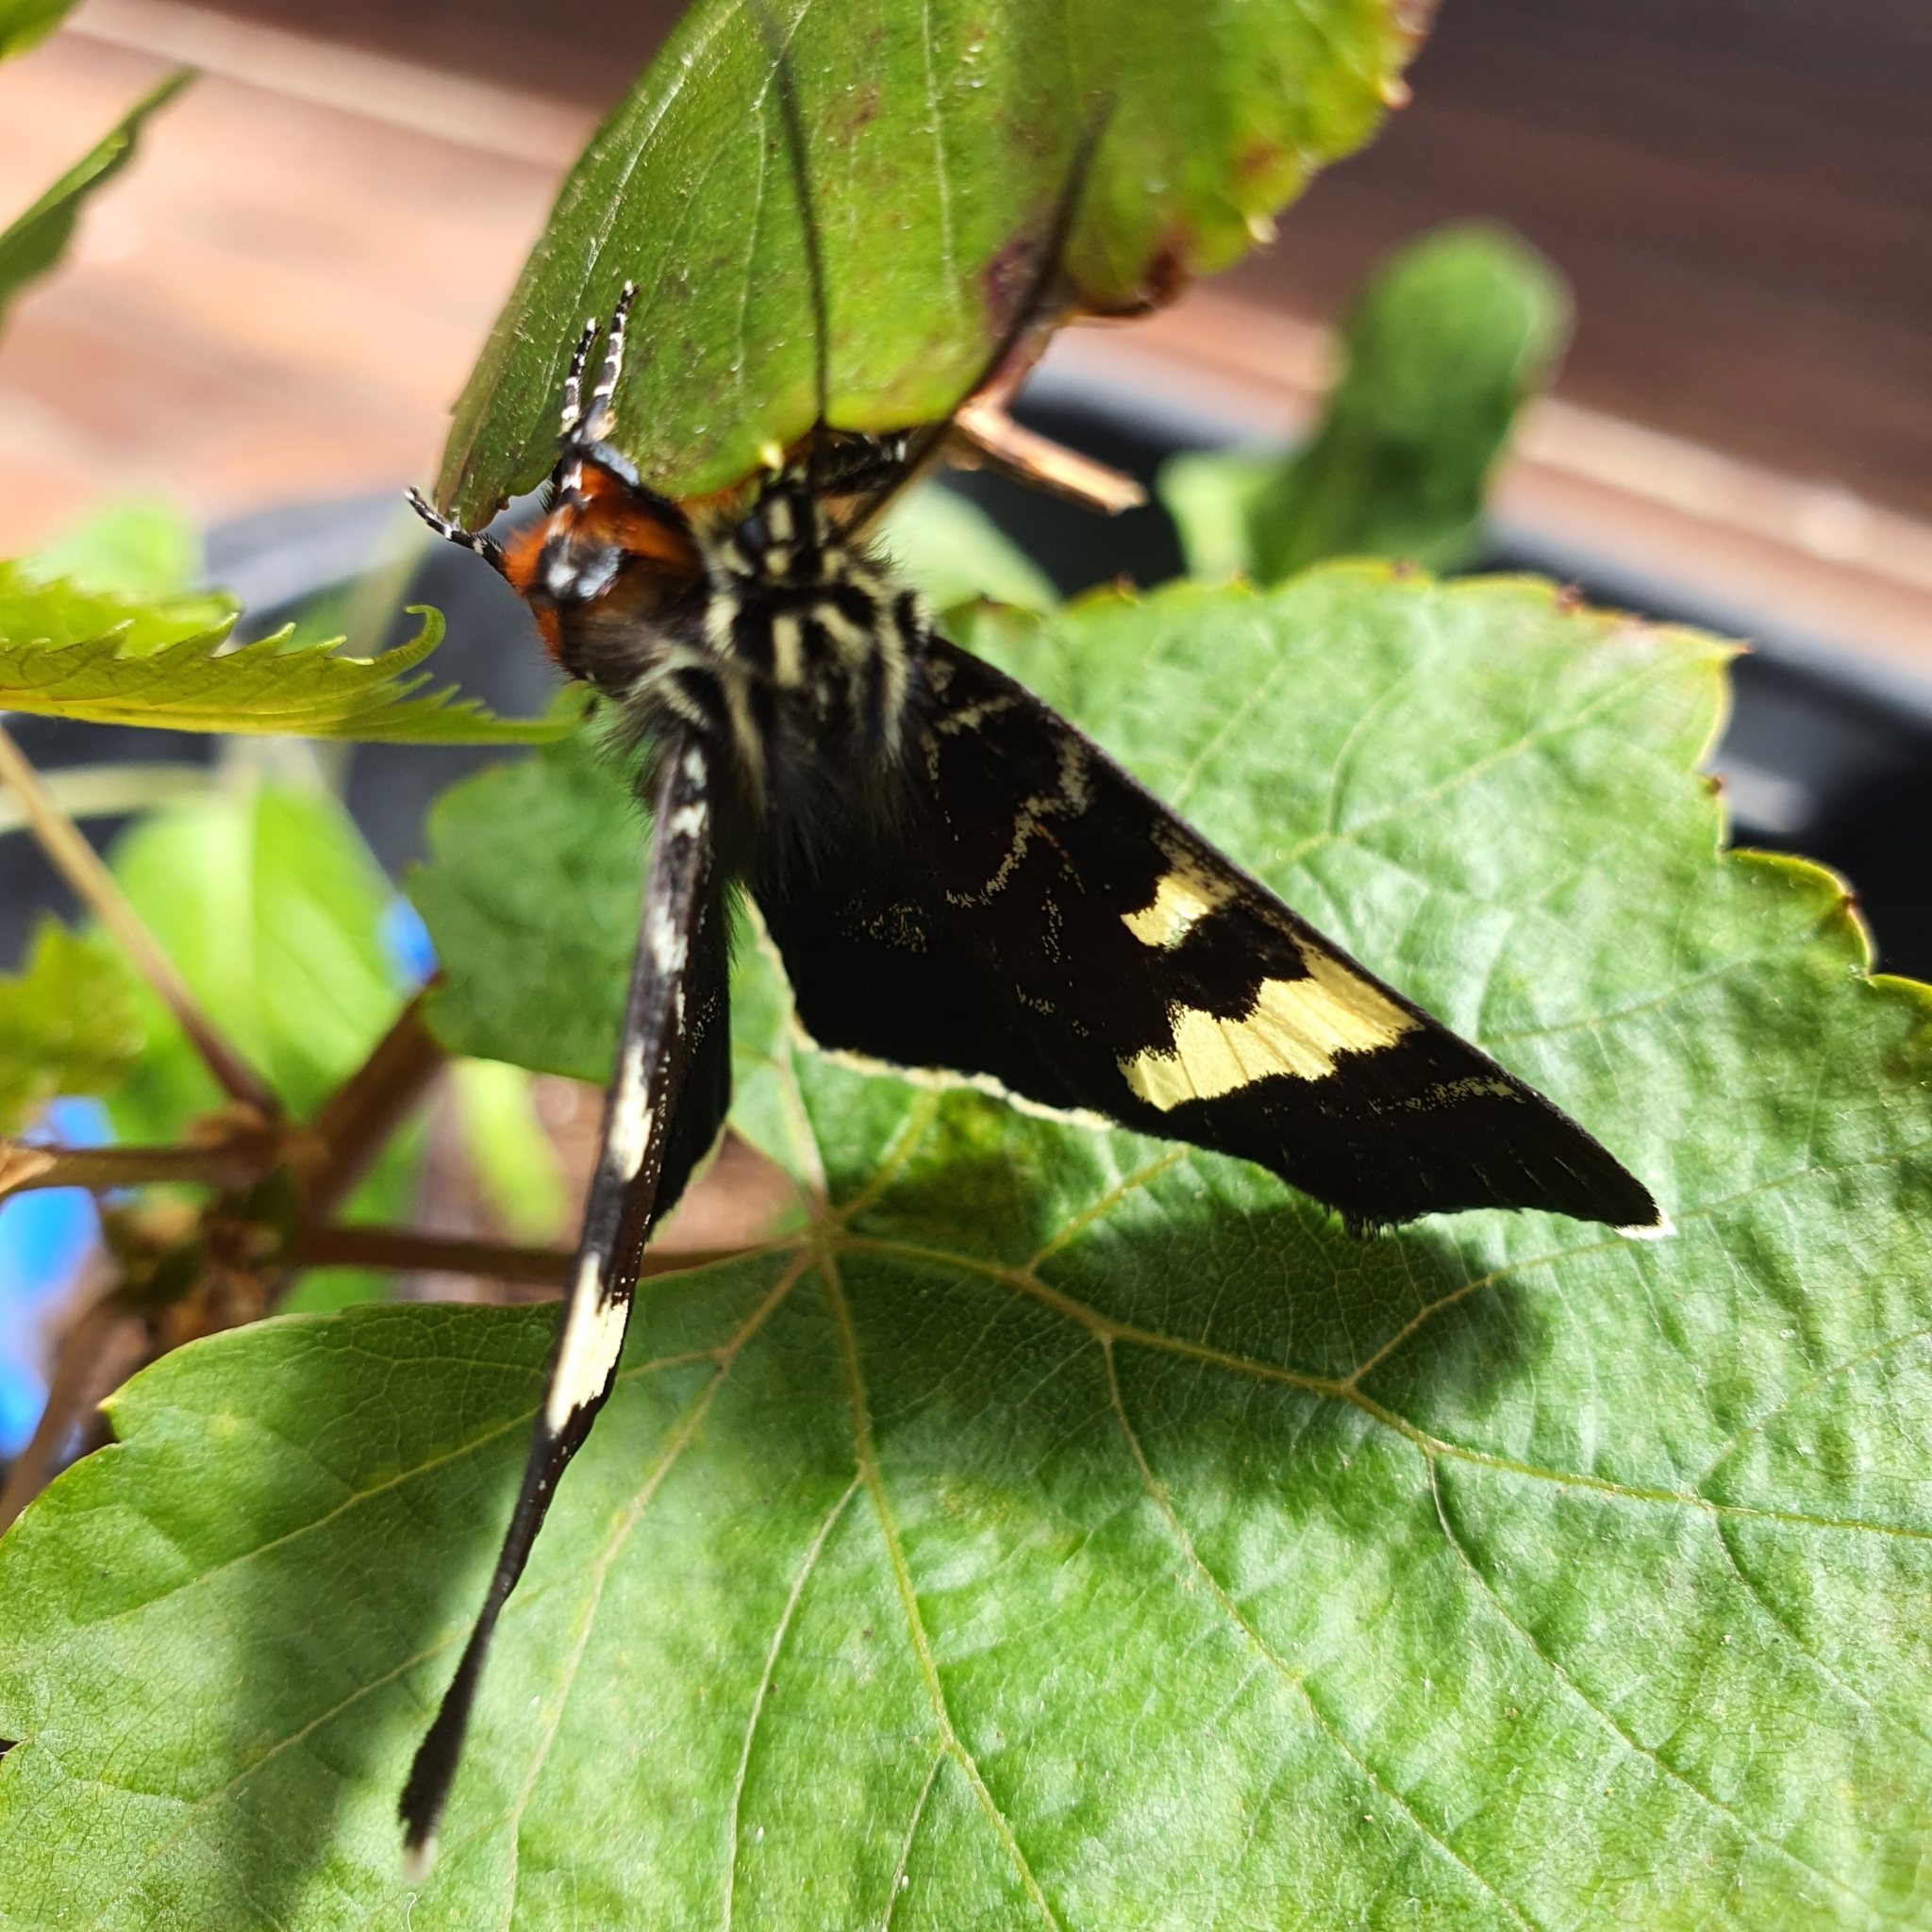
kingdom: Animalia
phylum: Arthropoda
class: Insecta
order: Lepidoptera
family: Noctuidae
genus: Phalaenoides
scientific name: Phalaenoides glycinae
